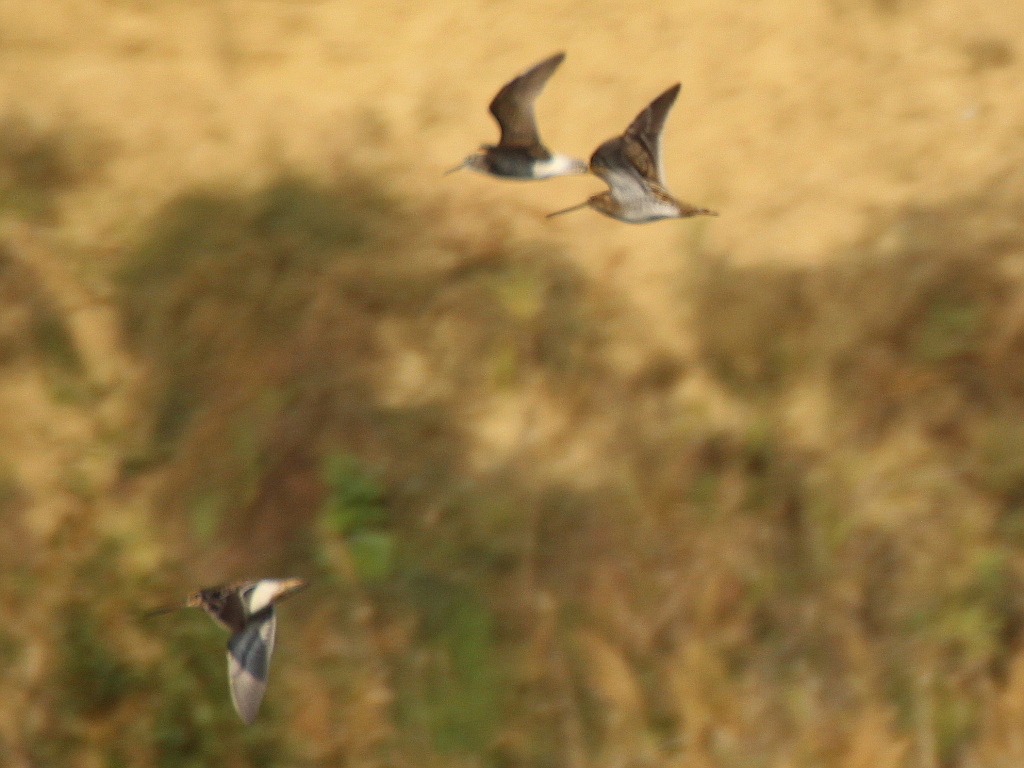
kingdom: Animalia
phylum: Chordata
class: Aves
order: Charadriiformes
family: Scolopacidae
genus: Gallinago
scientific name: Gallinago gallinago
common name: Common snipe
